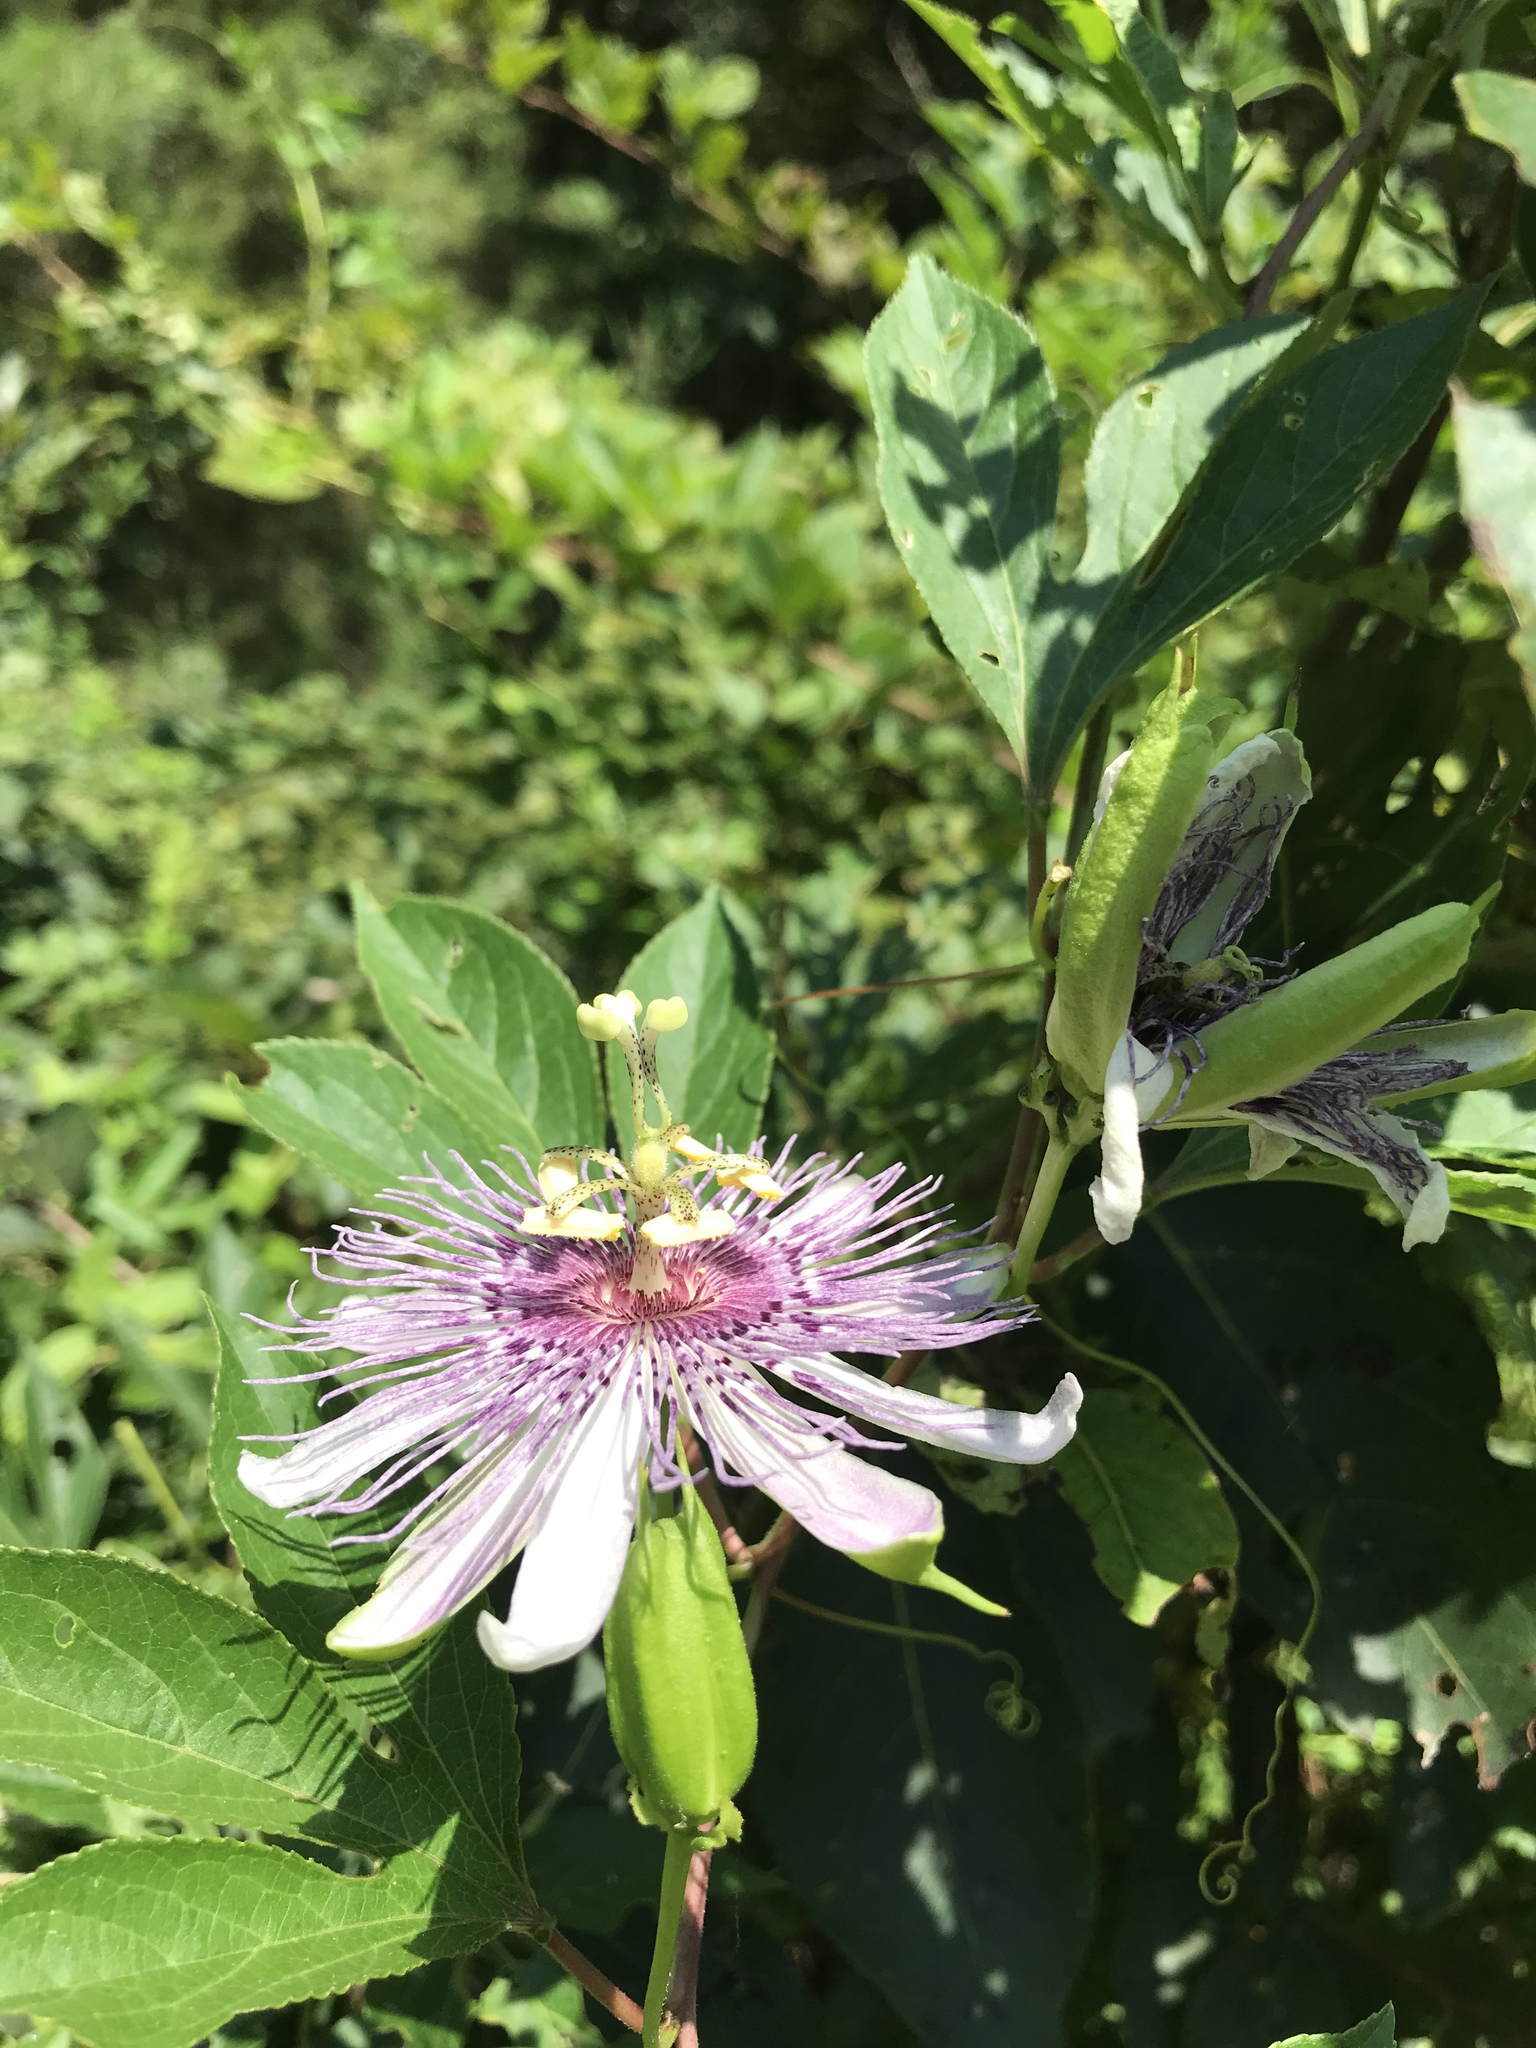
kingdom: Plantae
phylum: Tracheophyta
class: Magnoliopsida
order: Malpighiales
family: Passifloraceae
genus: Passiflora
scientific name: Passiflora incarnata
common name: Apricot-vine
